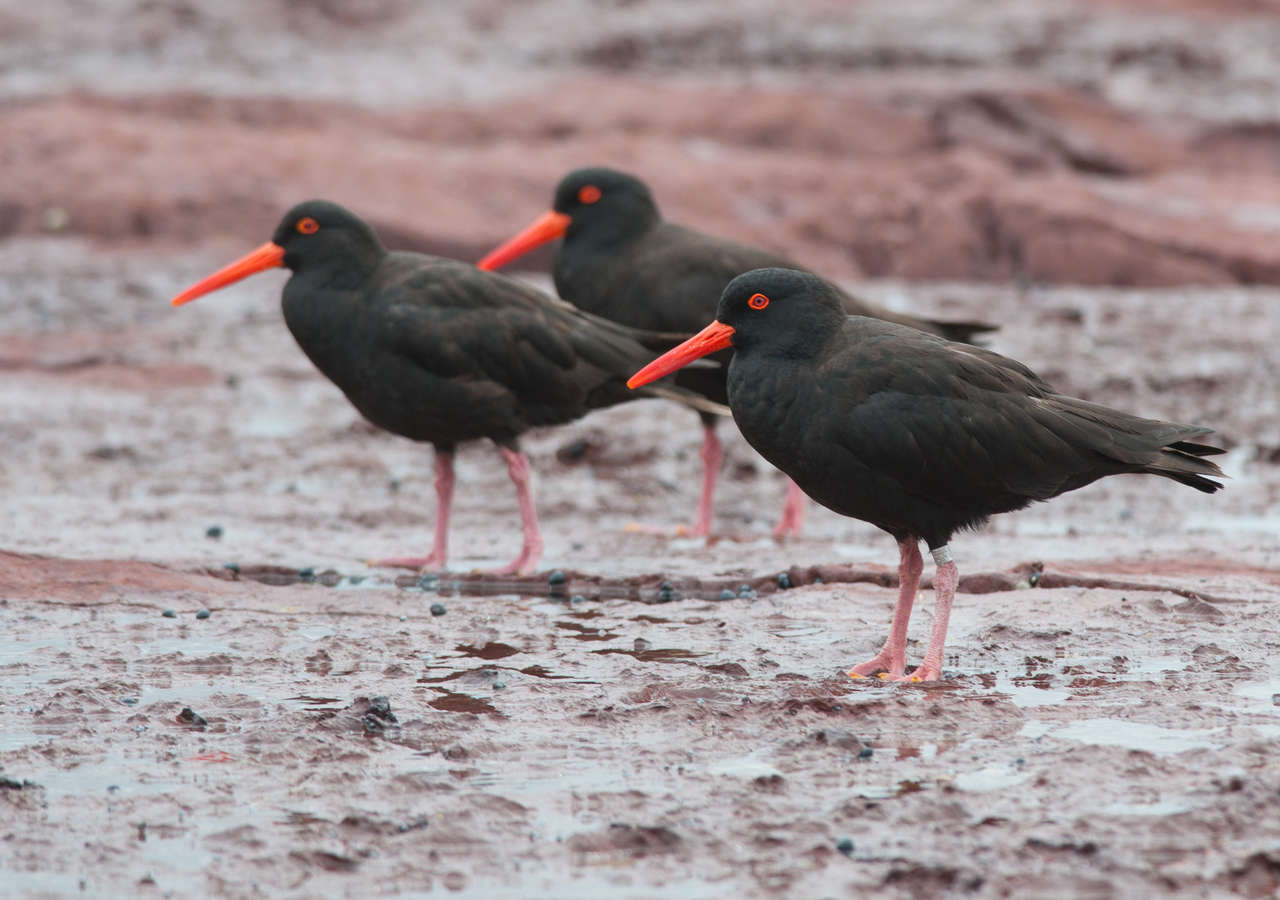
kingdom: Animalia
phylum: Chordata
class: Aves
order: Charadriiformes
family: Haematopodidae
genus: Haematopus
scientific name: Haematopus fuliginosus
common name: Sooty oystercatcher
